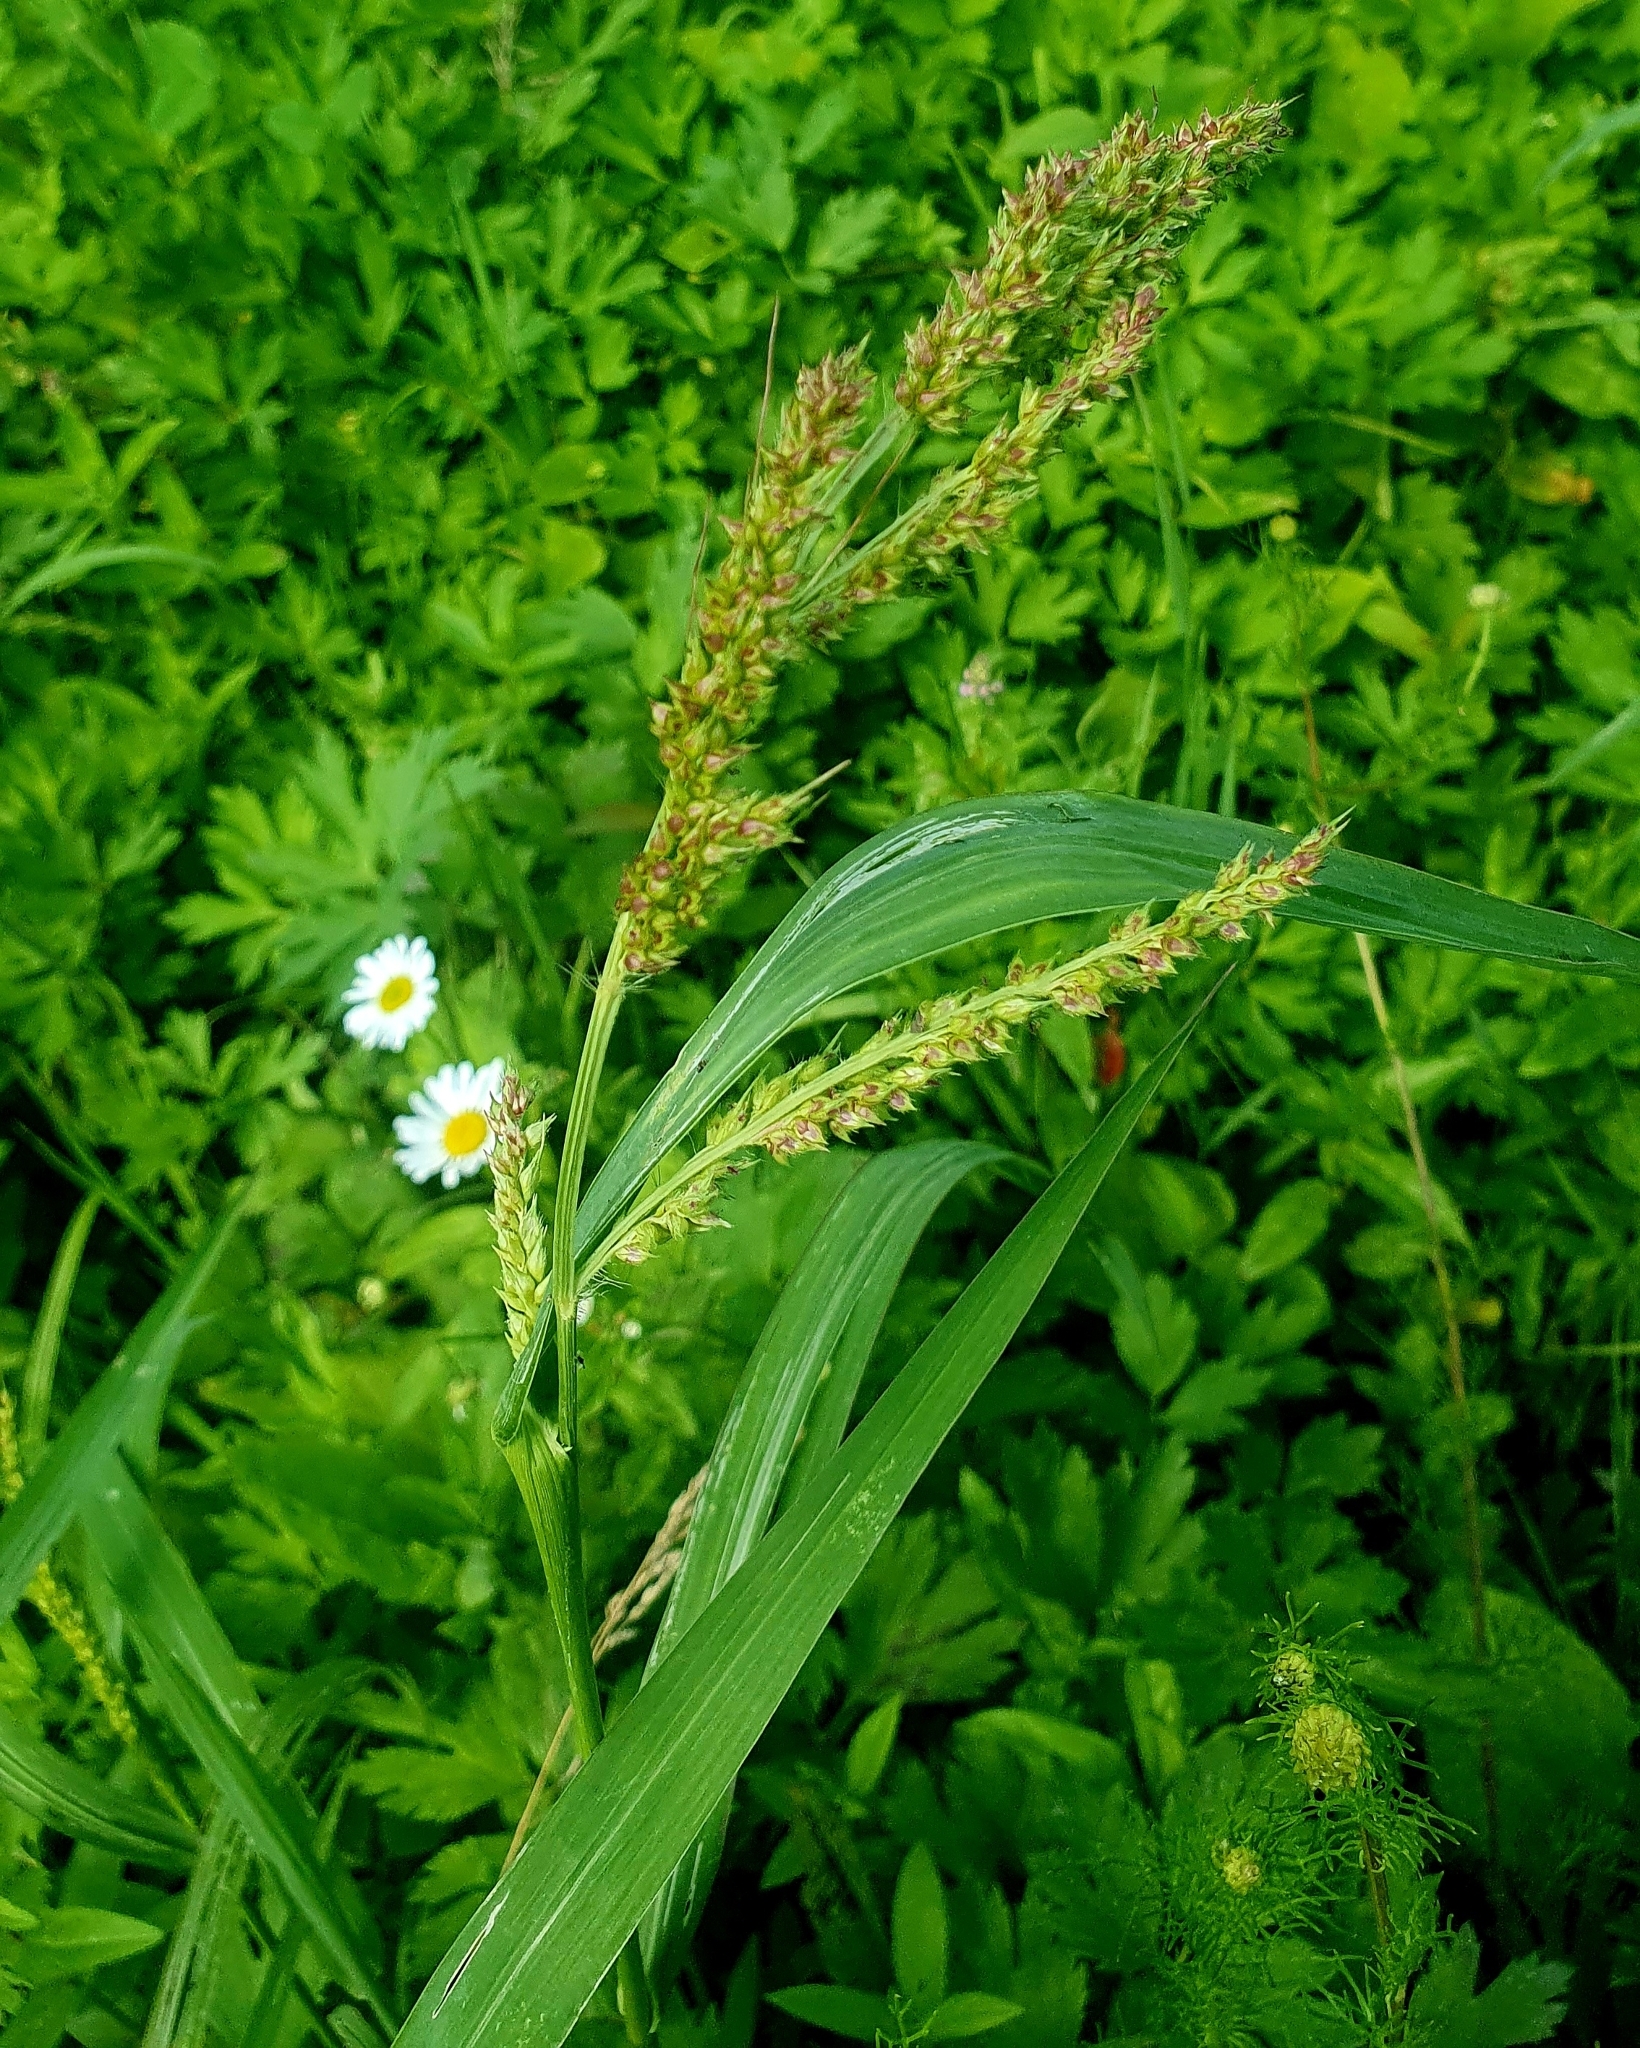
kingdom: Plantae
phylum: Tracheophyta
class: Liliopsida
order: Poales
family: Poaceae
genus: Echinochloa
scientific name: Echinochloa crus-galli
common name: Cockspur
